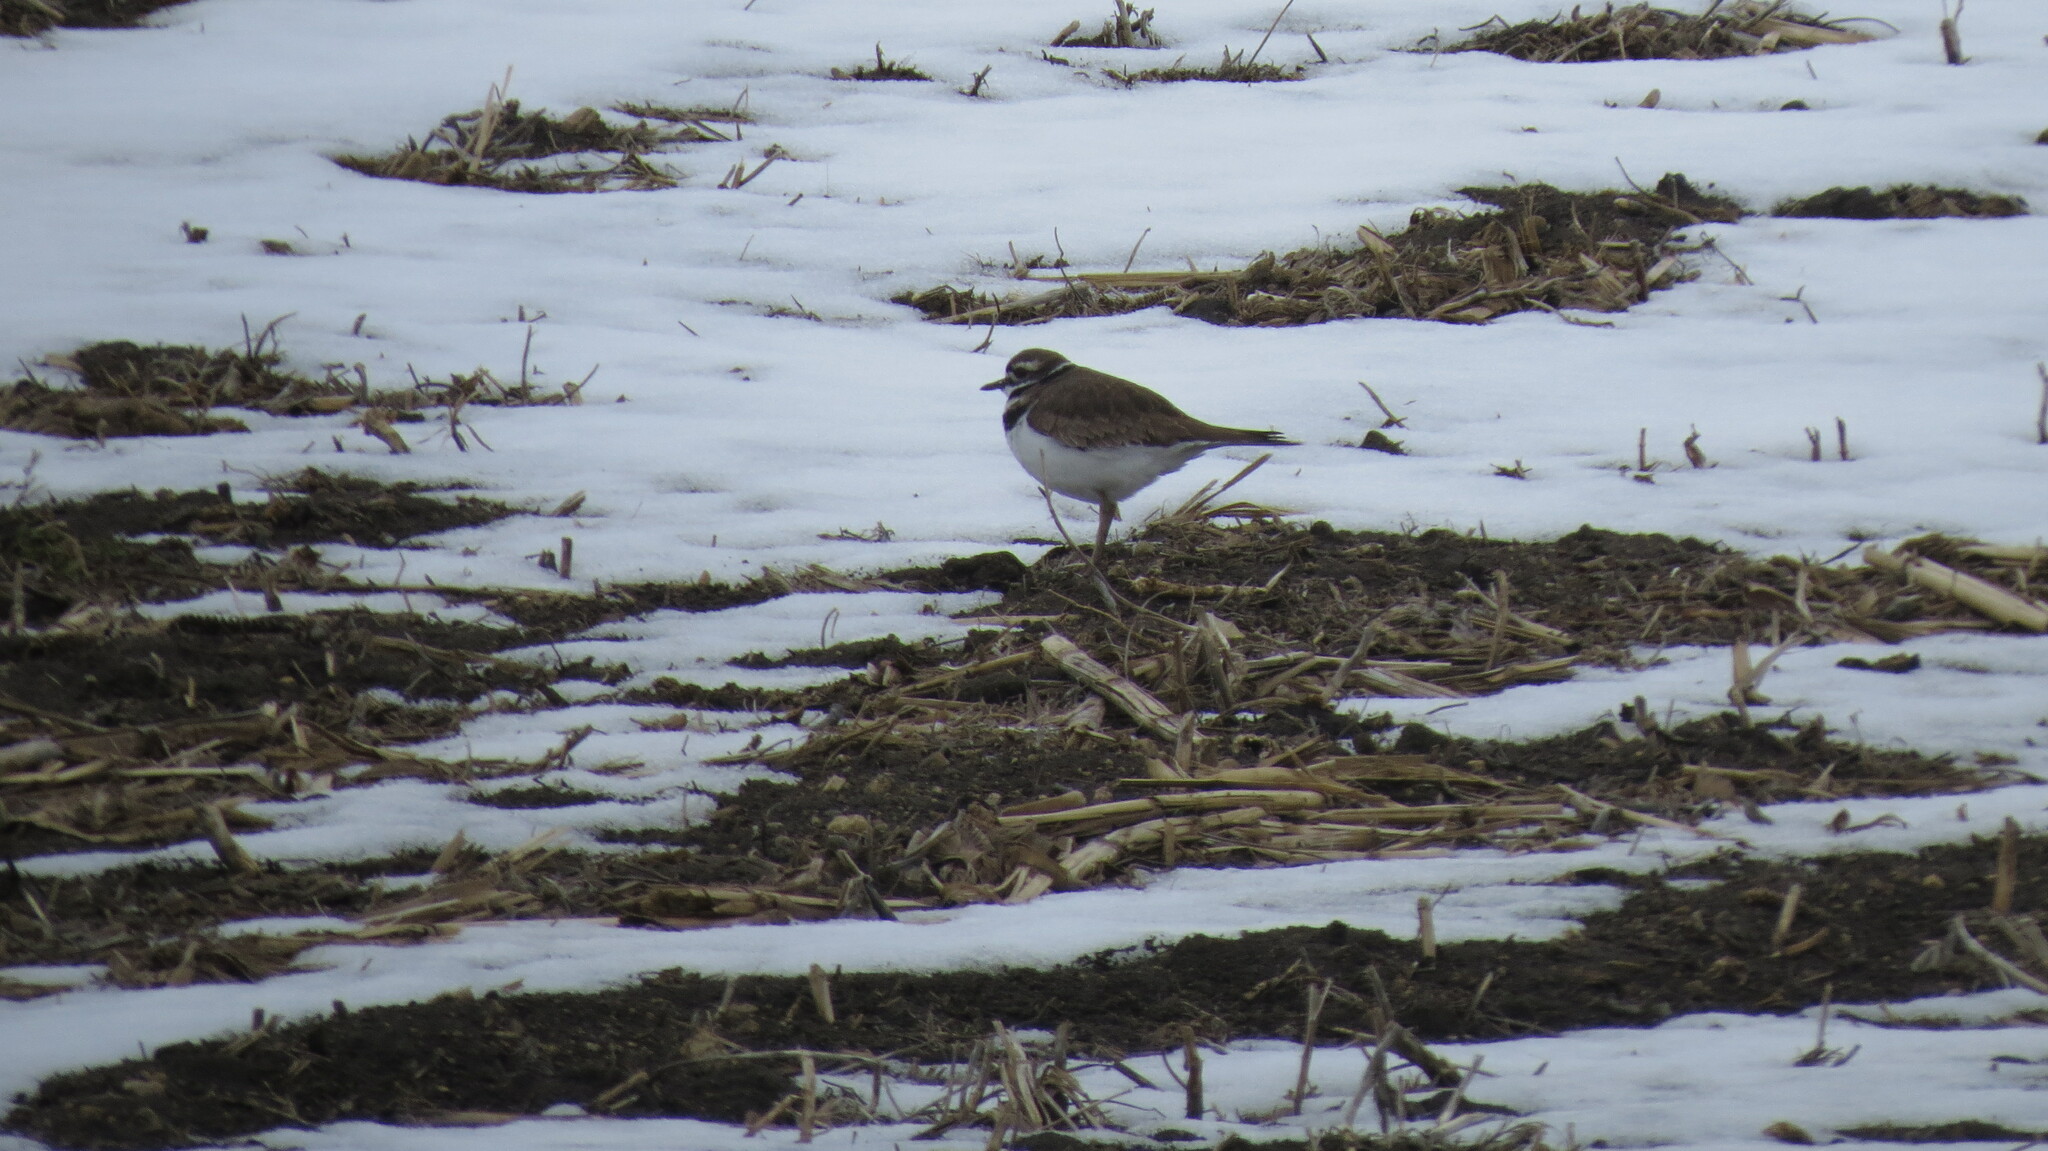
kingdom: Animalia
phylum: Chordata
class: Aves
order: Charadriiformes
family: Charadriidae
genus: Charadrius
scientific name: Charadrius vociferus
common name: Killdeer
